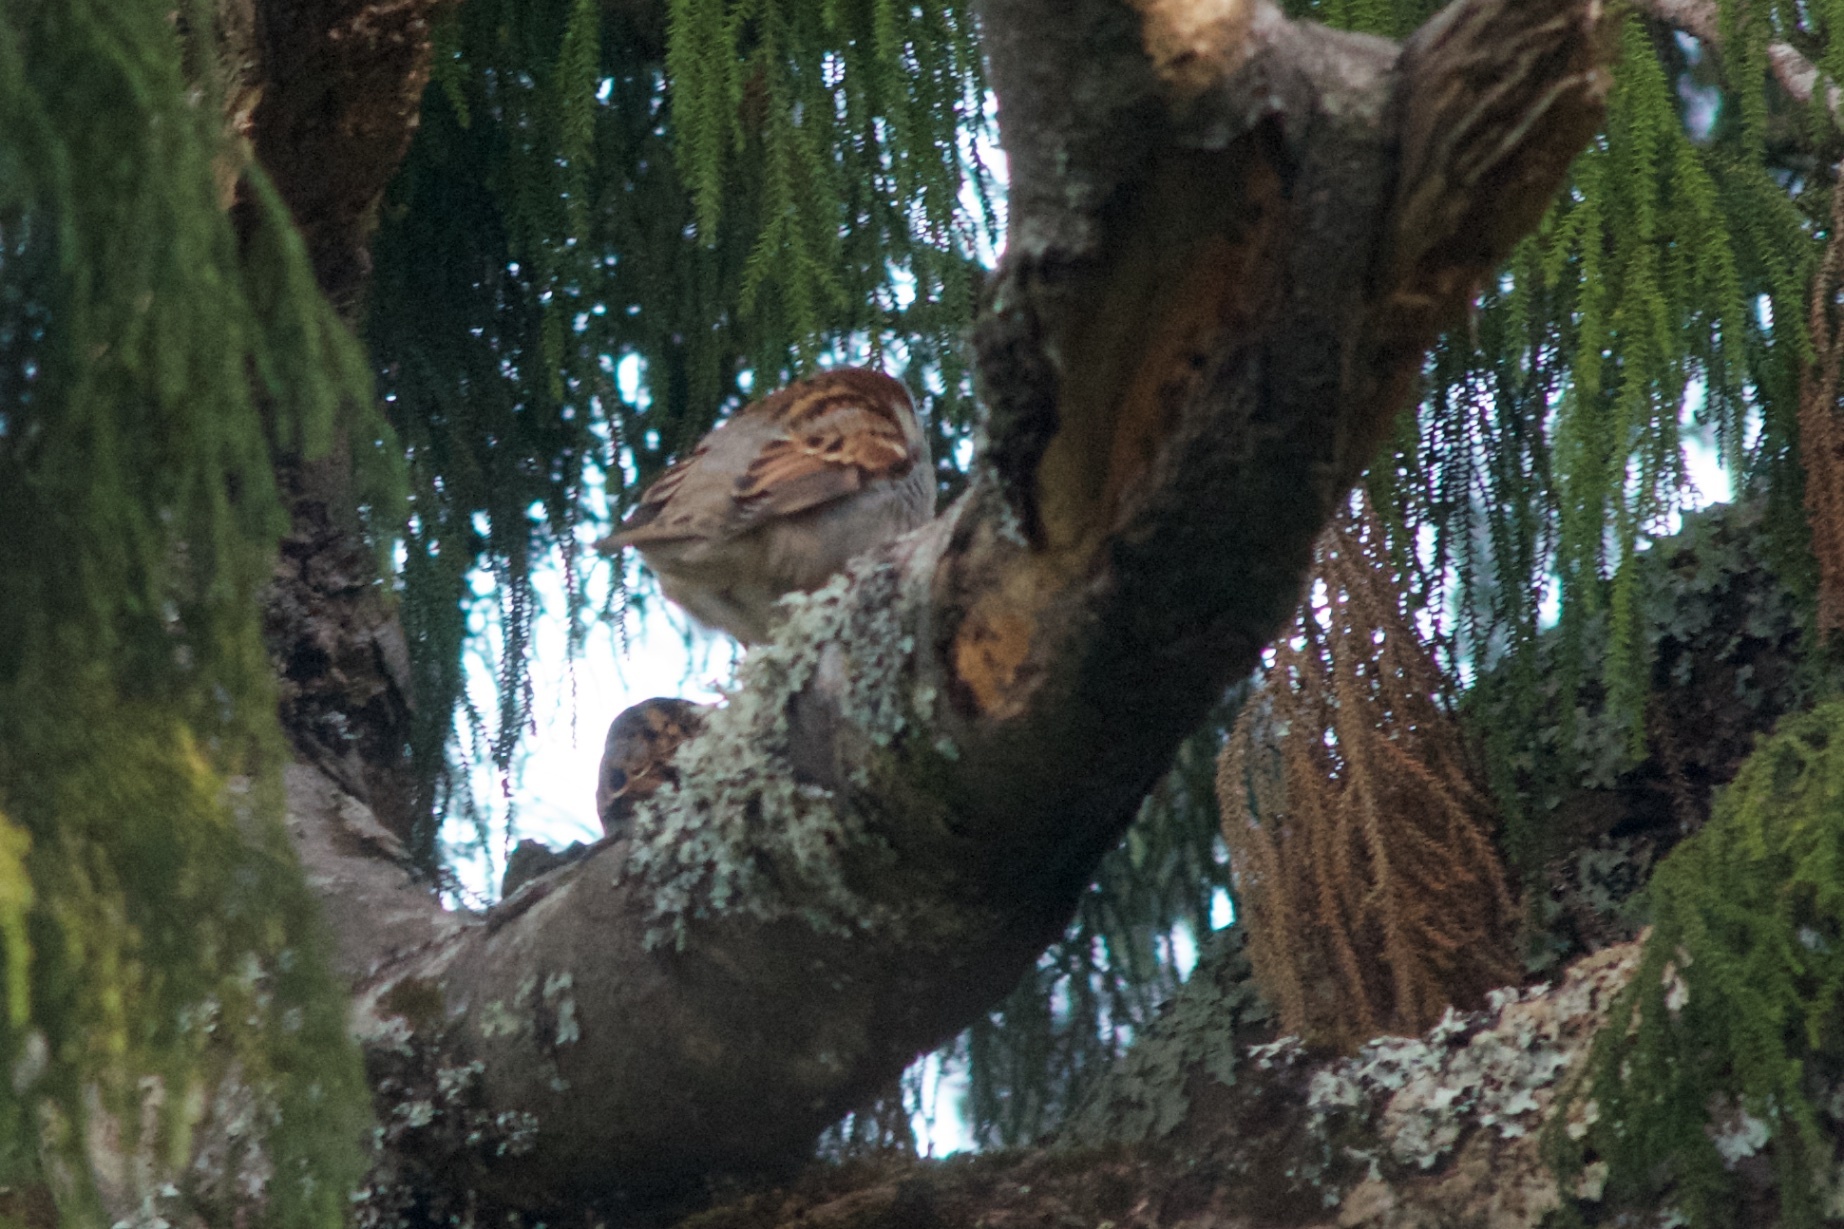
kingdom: Animalia
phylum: Chordata
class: Aves
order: Passeriformes
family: Passeridae
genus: Passer
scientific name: Passer domesticus
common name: House sparrow
